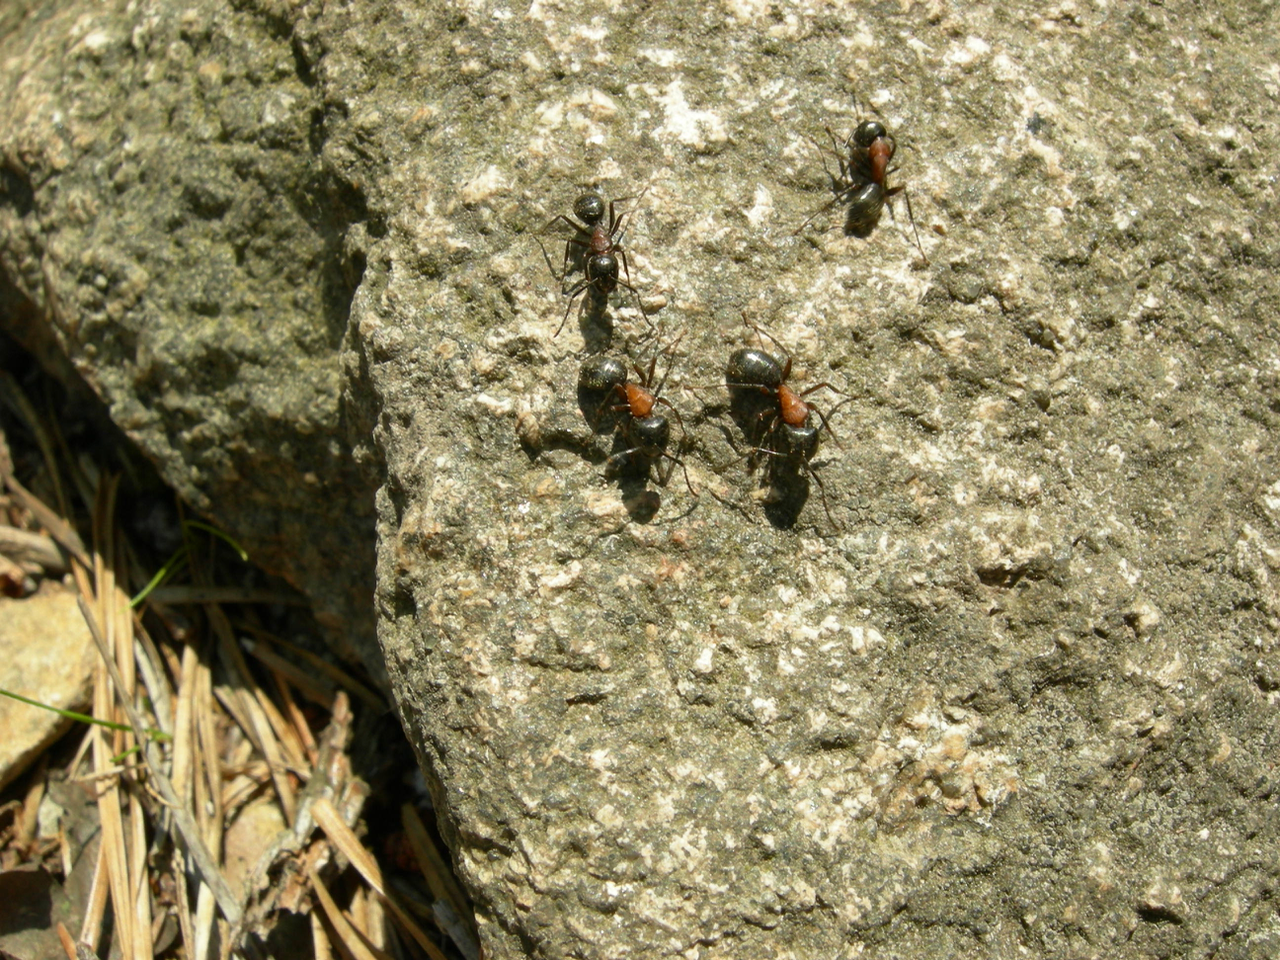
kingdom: Animalia
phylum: Arthropoda
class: Insecta
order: Hymenoptera
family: Formicidae
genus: Camponotus
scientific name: Camponotus novaeboracensis
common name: New york carpenter ant
